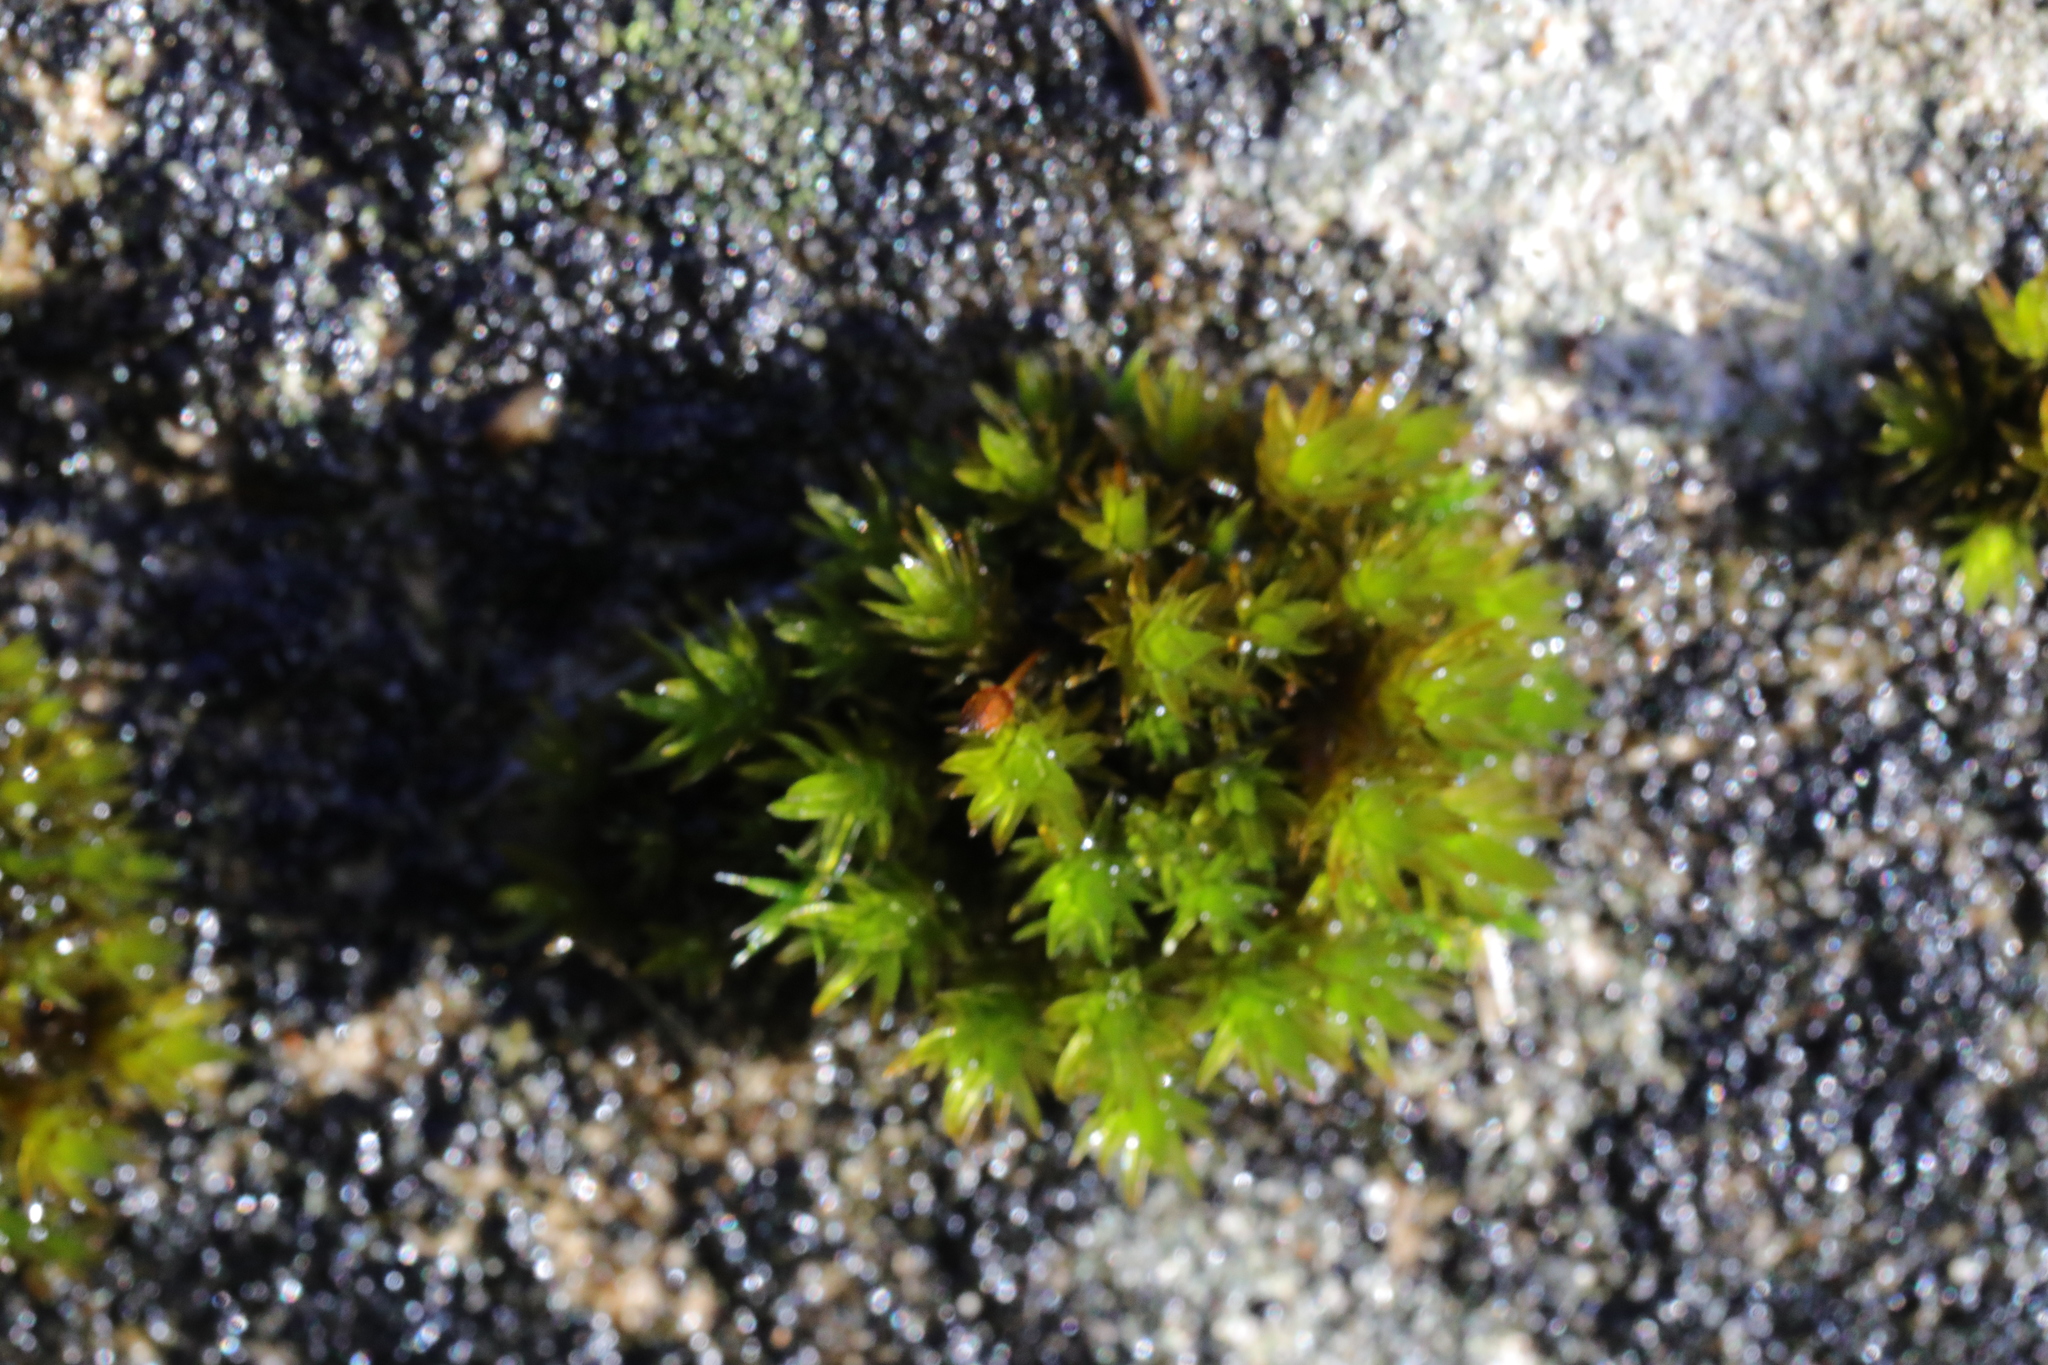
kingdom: Plantae
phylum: Bryophyta
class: Bryopsida
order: Orthotrichales
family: Orthotrichaceae
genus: Orthotrichum
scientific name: Orthotrichum anomalum
